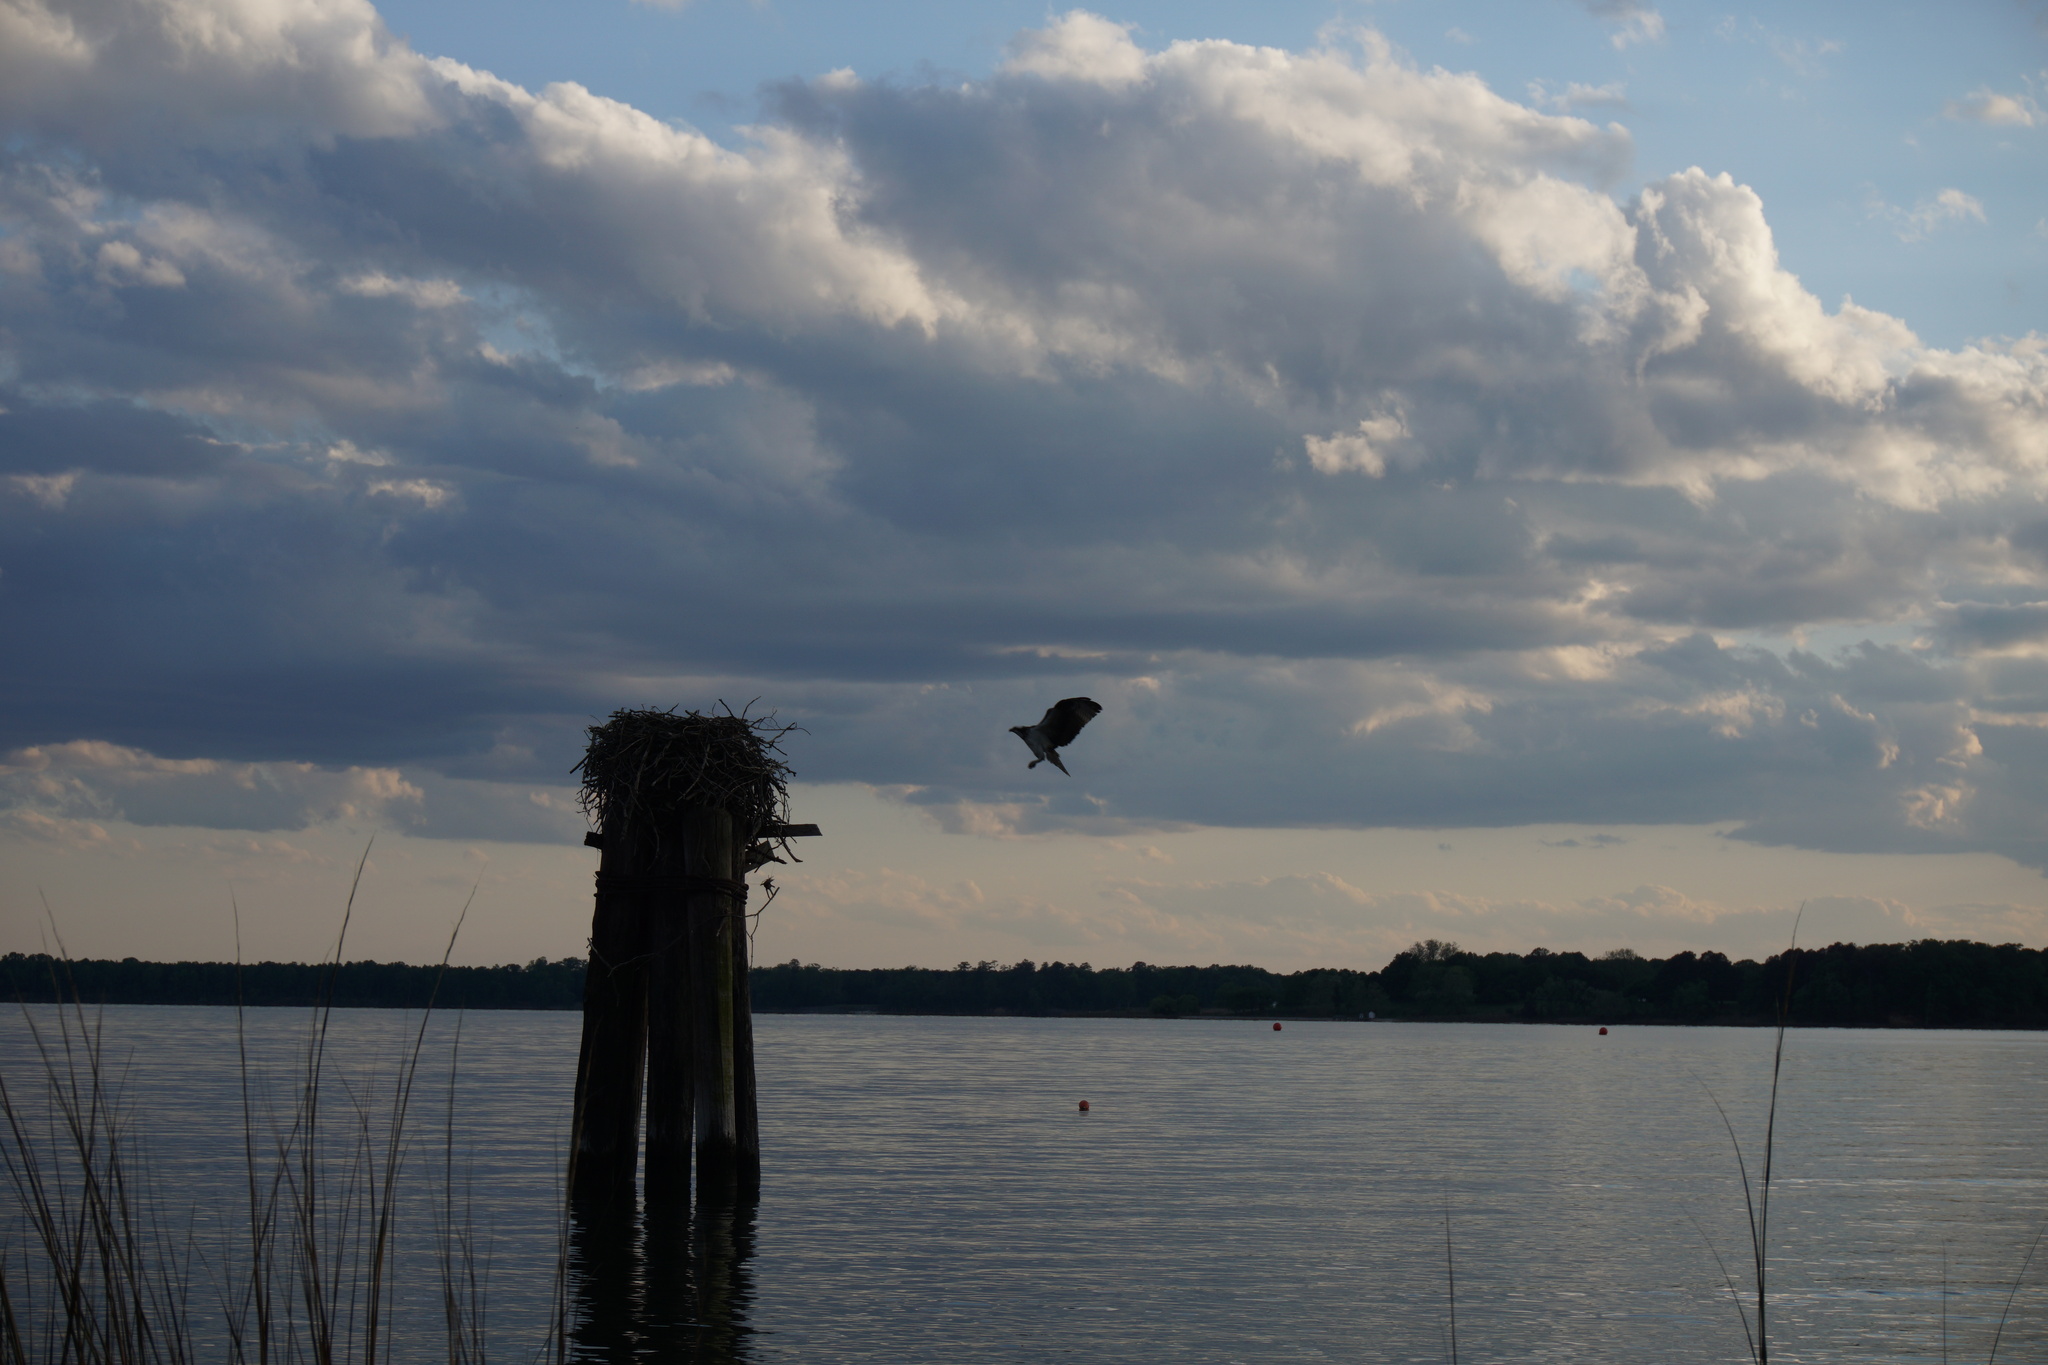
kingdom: Animalia
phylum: Chordata
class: Aves
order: Accipitriformes
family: Pandionidae
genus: Pandion
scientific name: Pandion haliaetus
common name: Osprey
